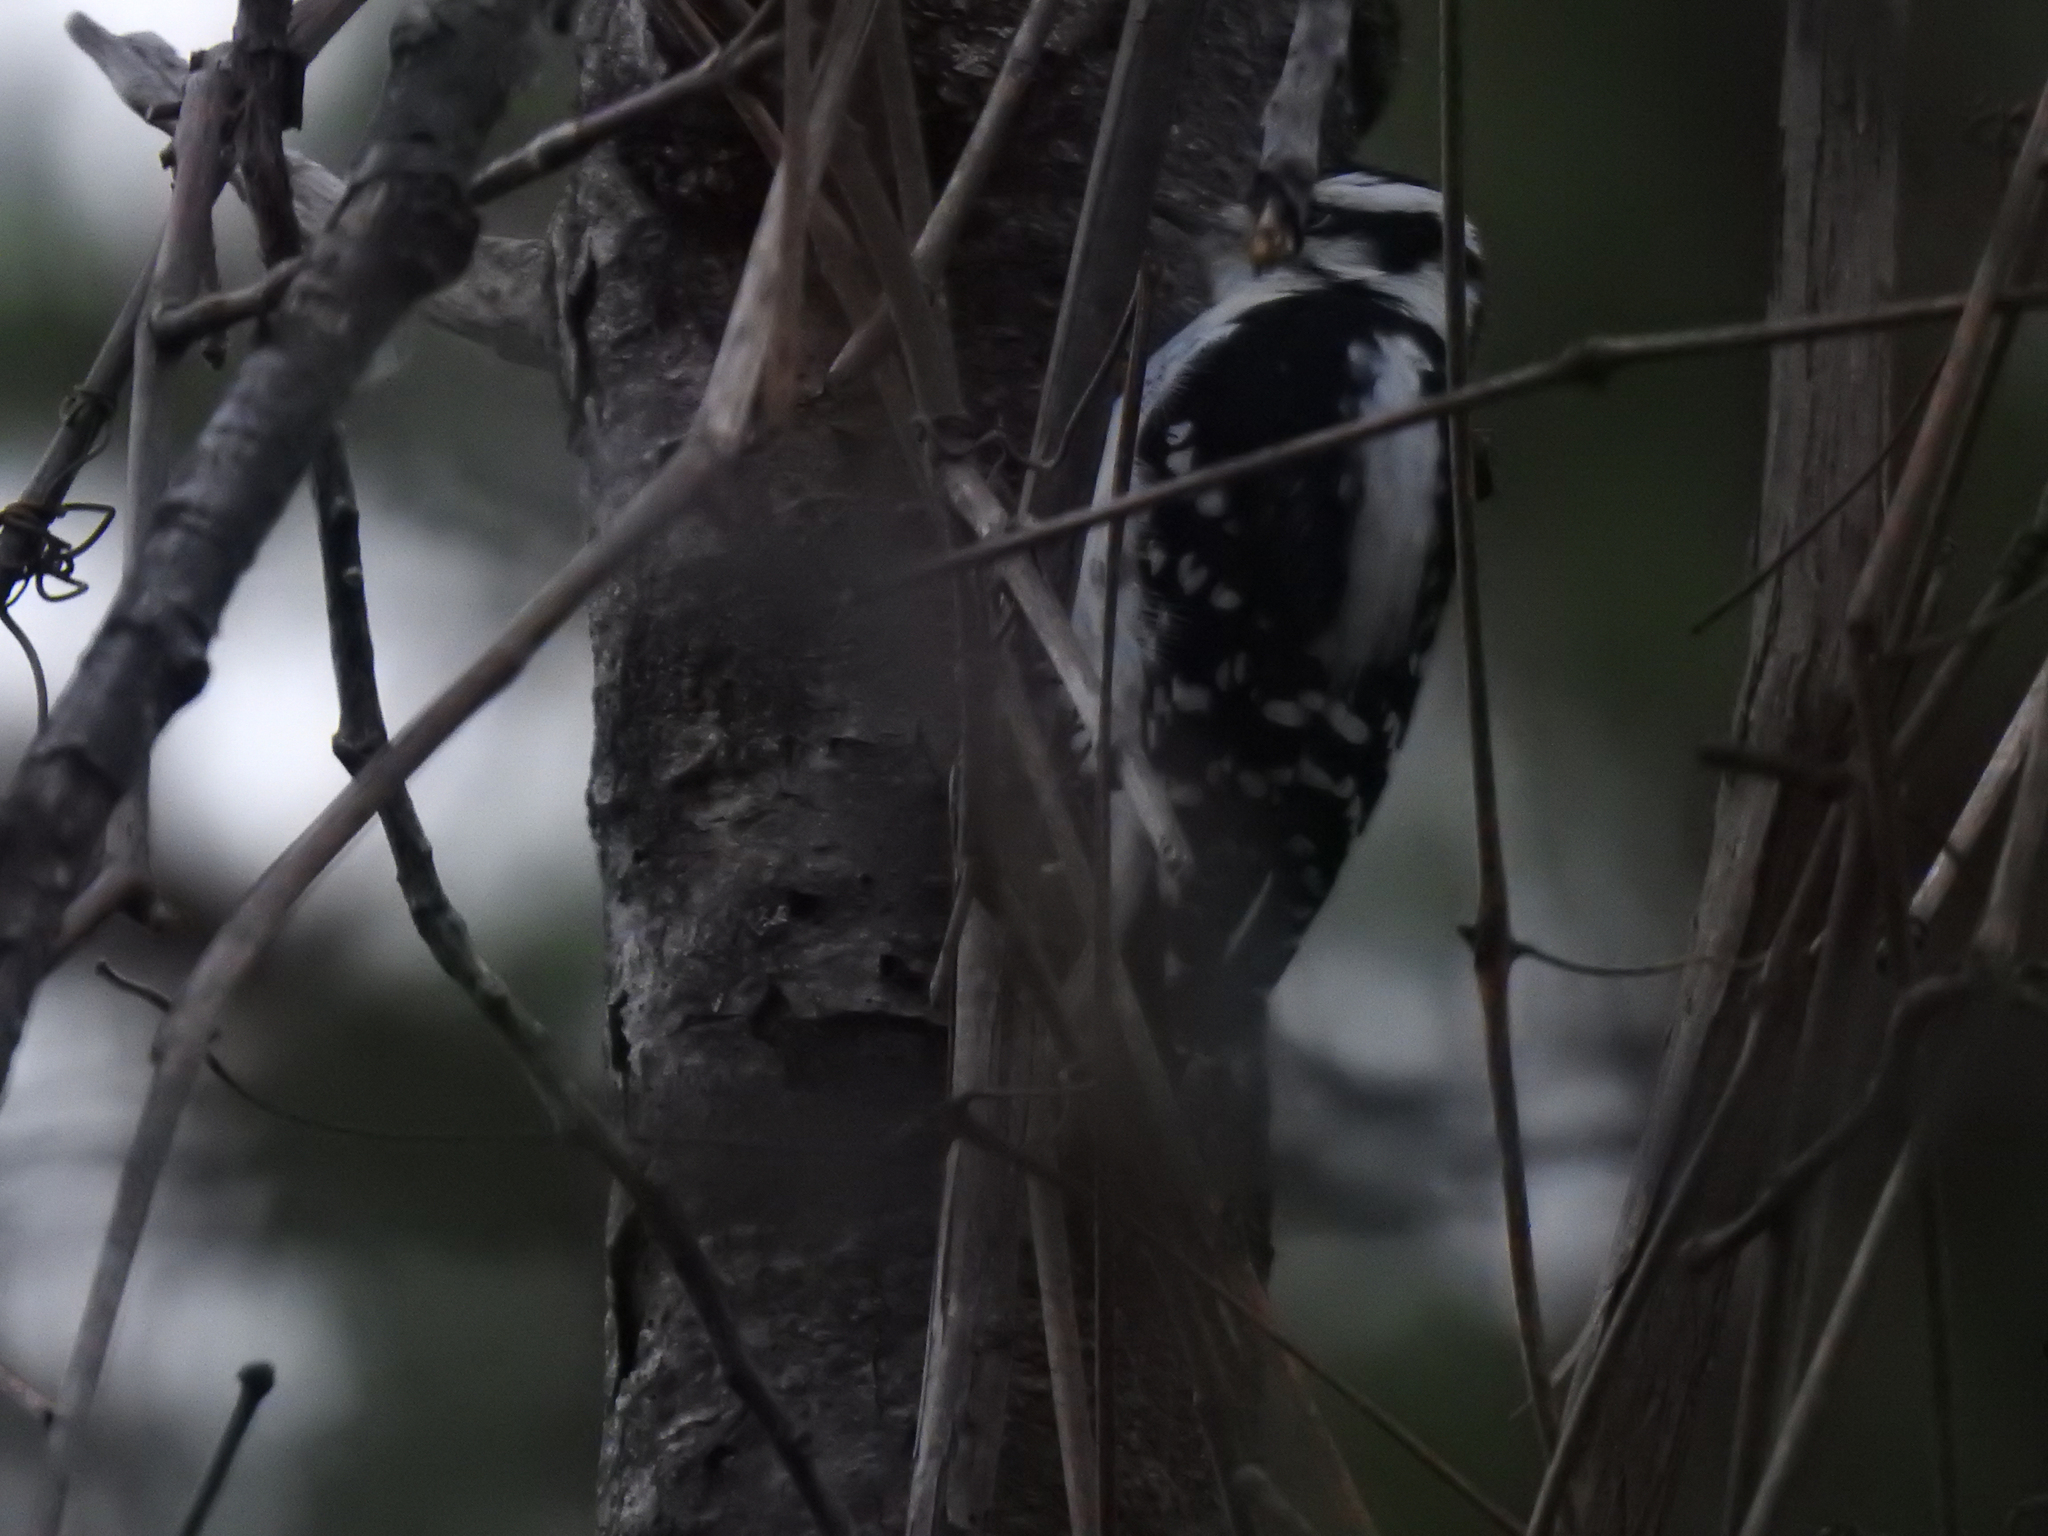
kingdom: Animalia
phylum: Chordata
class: Aves
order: Piciformes
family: Picidae
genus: Dryobates
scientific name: Dryobates pubescens
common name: Downy woodpecker
